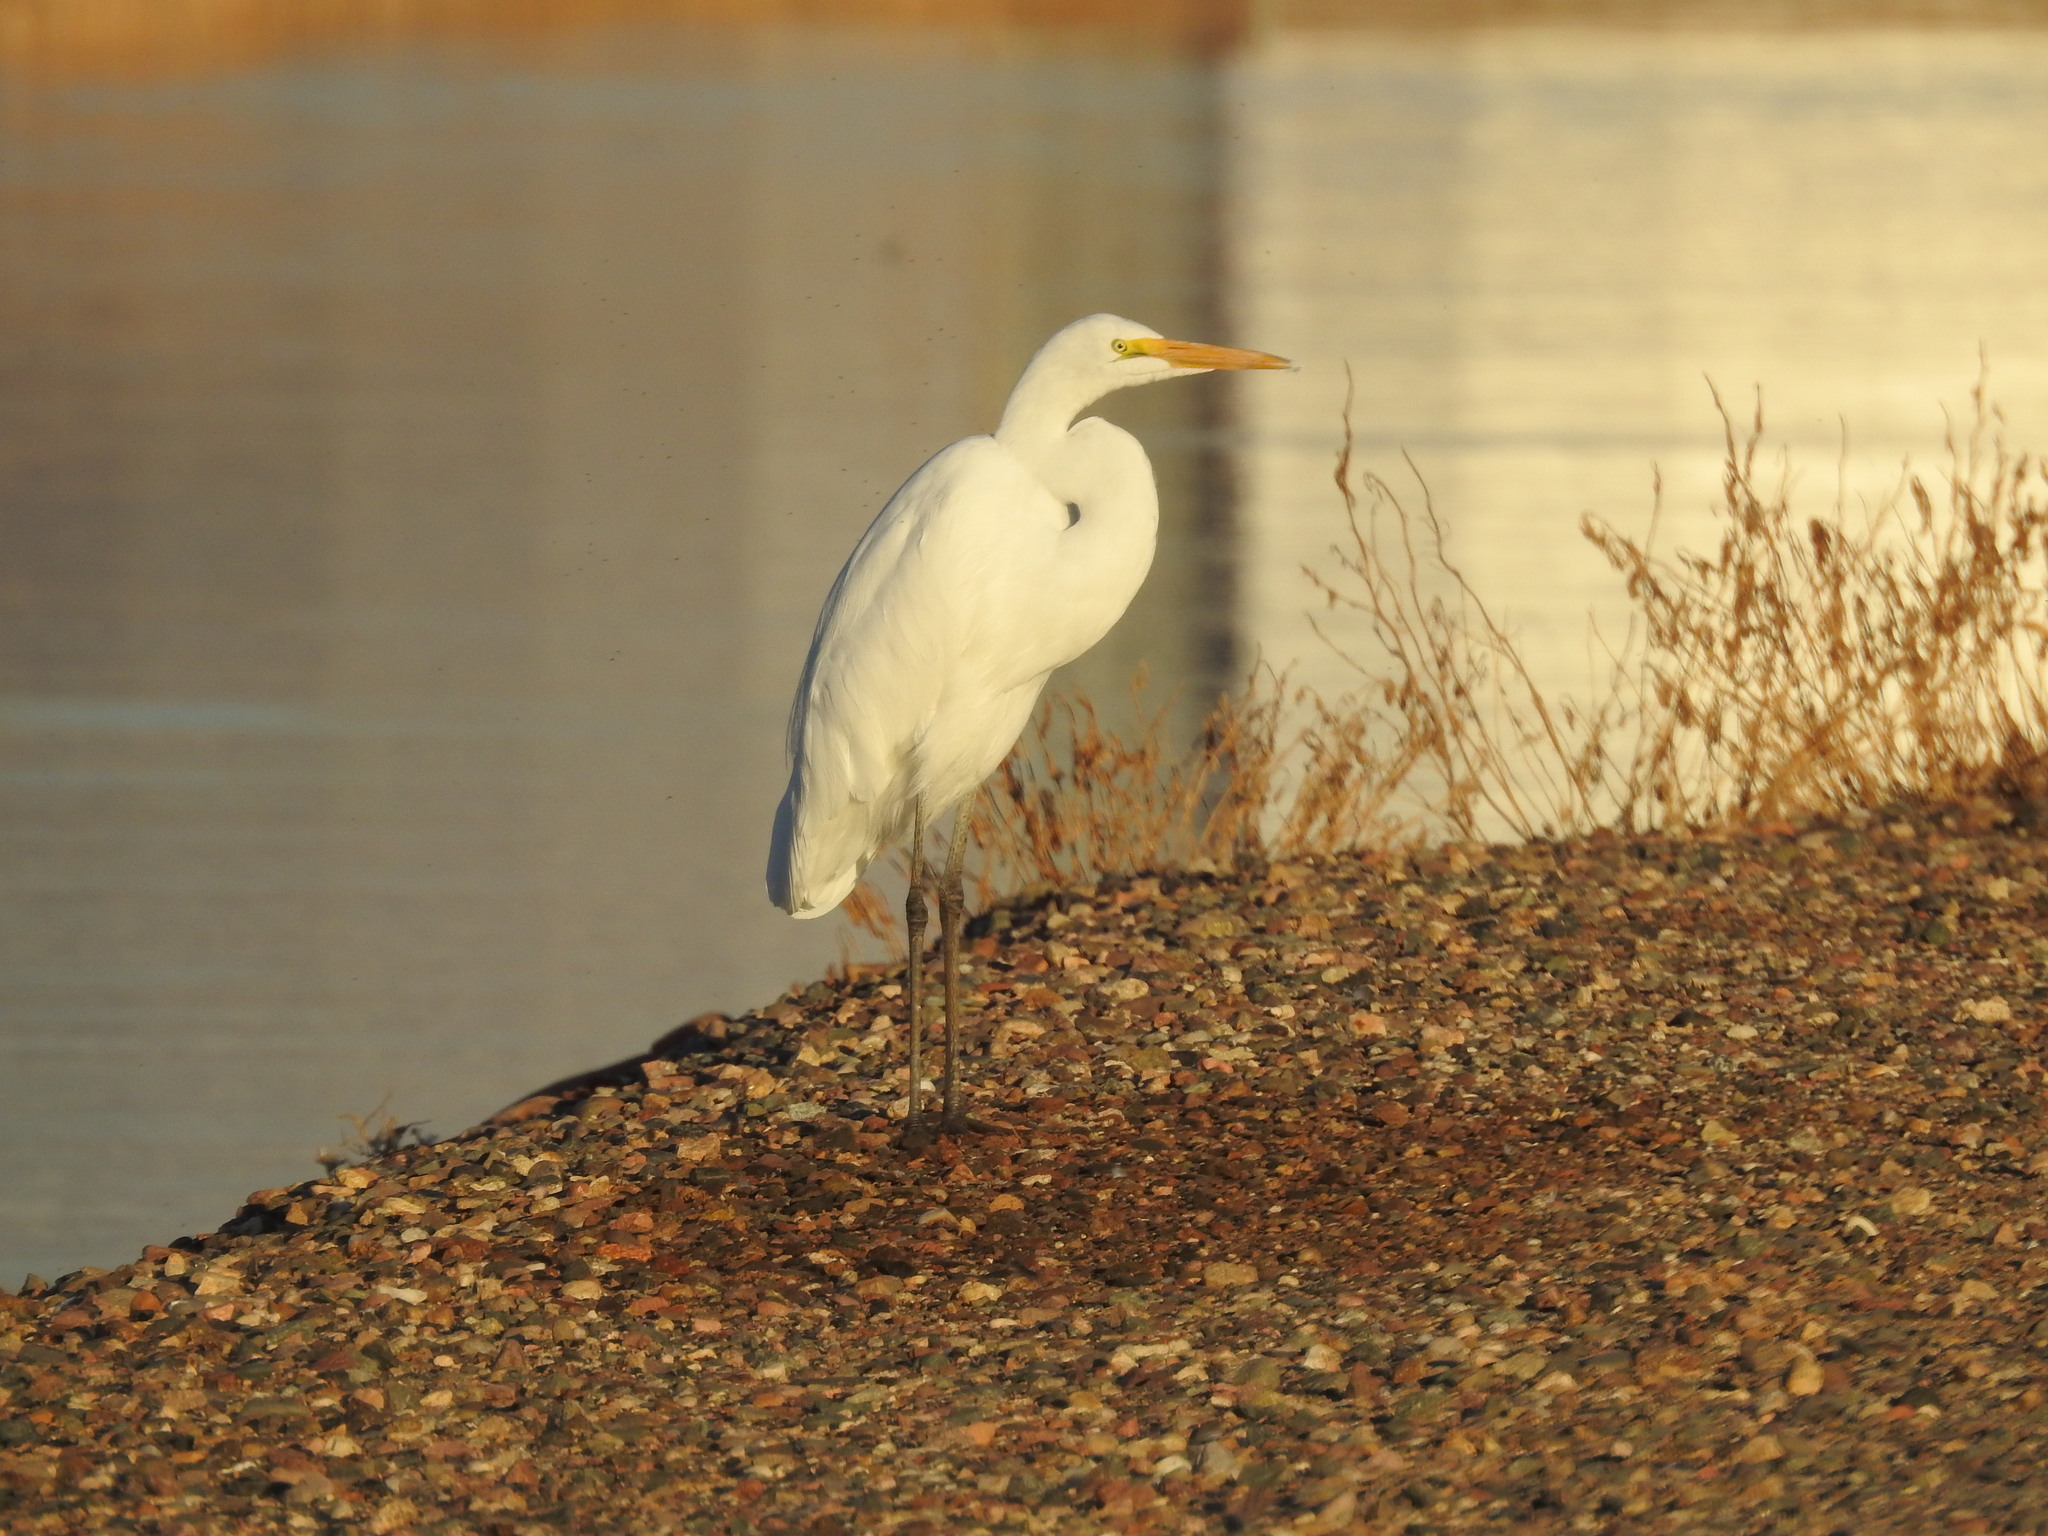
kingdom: Animalia
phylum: Chordata
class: Aves
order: Pelecaniformes
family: Ardeidae
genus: Ardea
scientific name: Ardea alba
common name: Great egret
